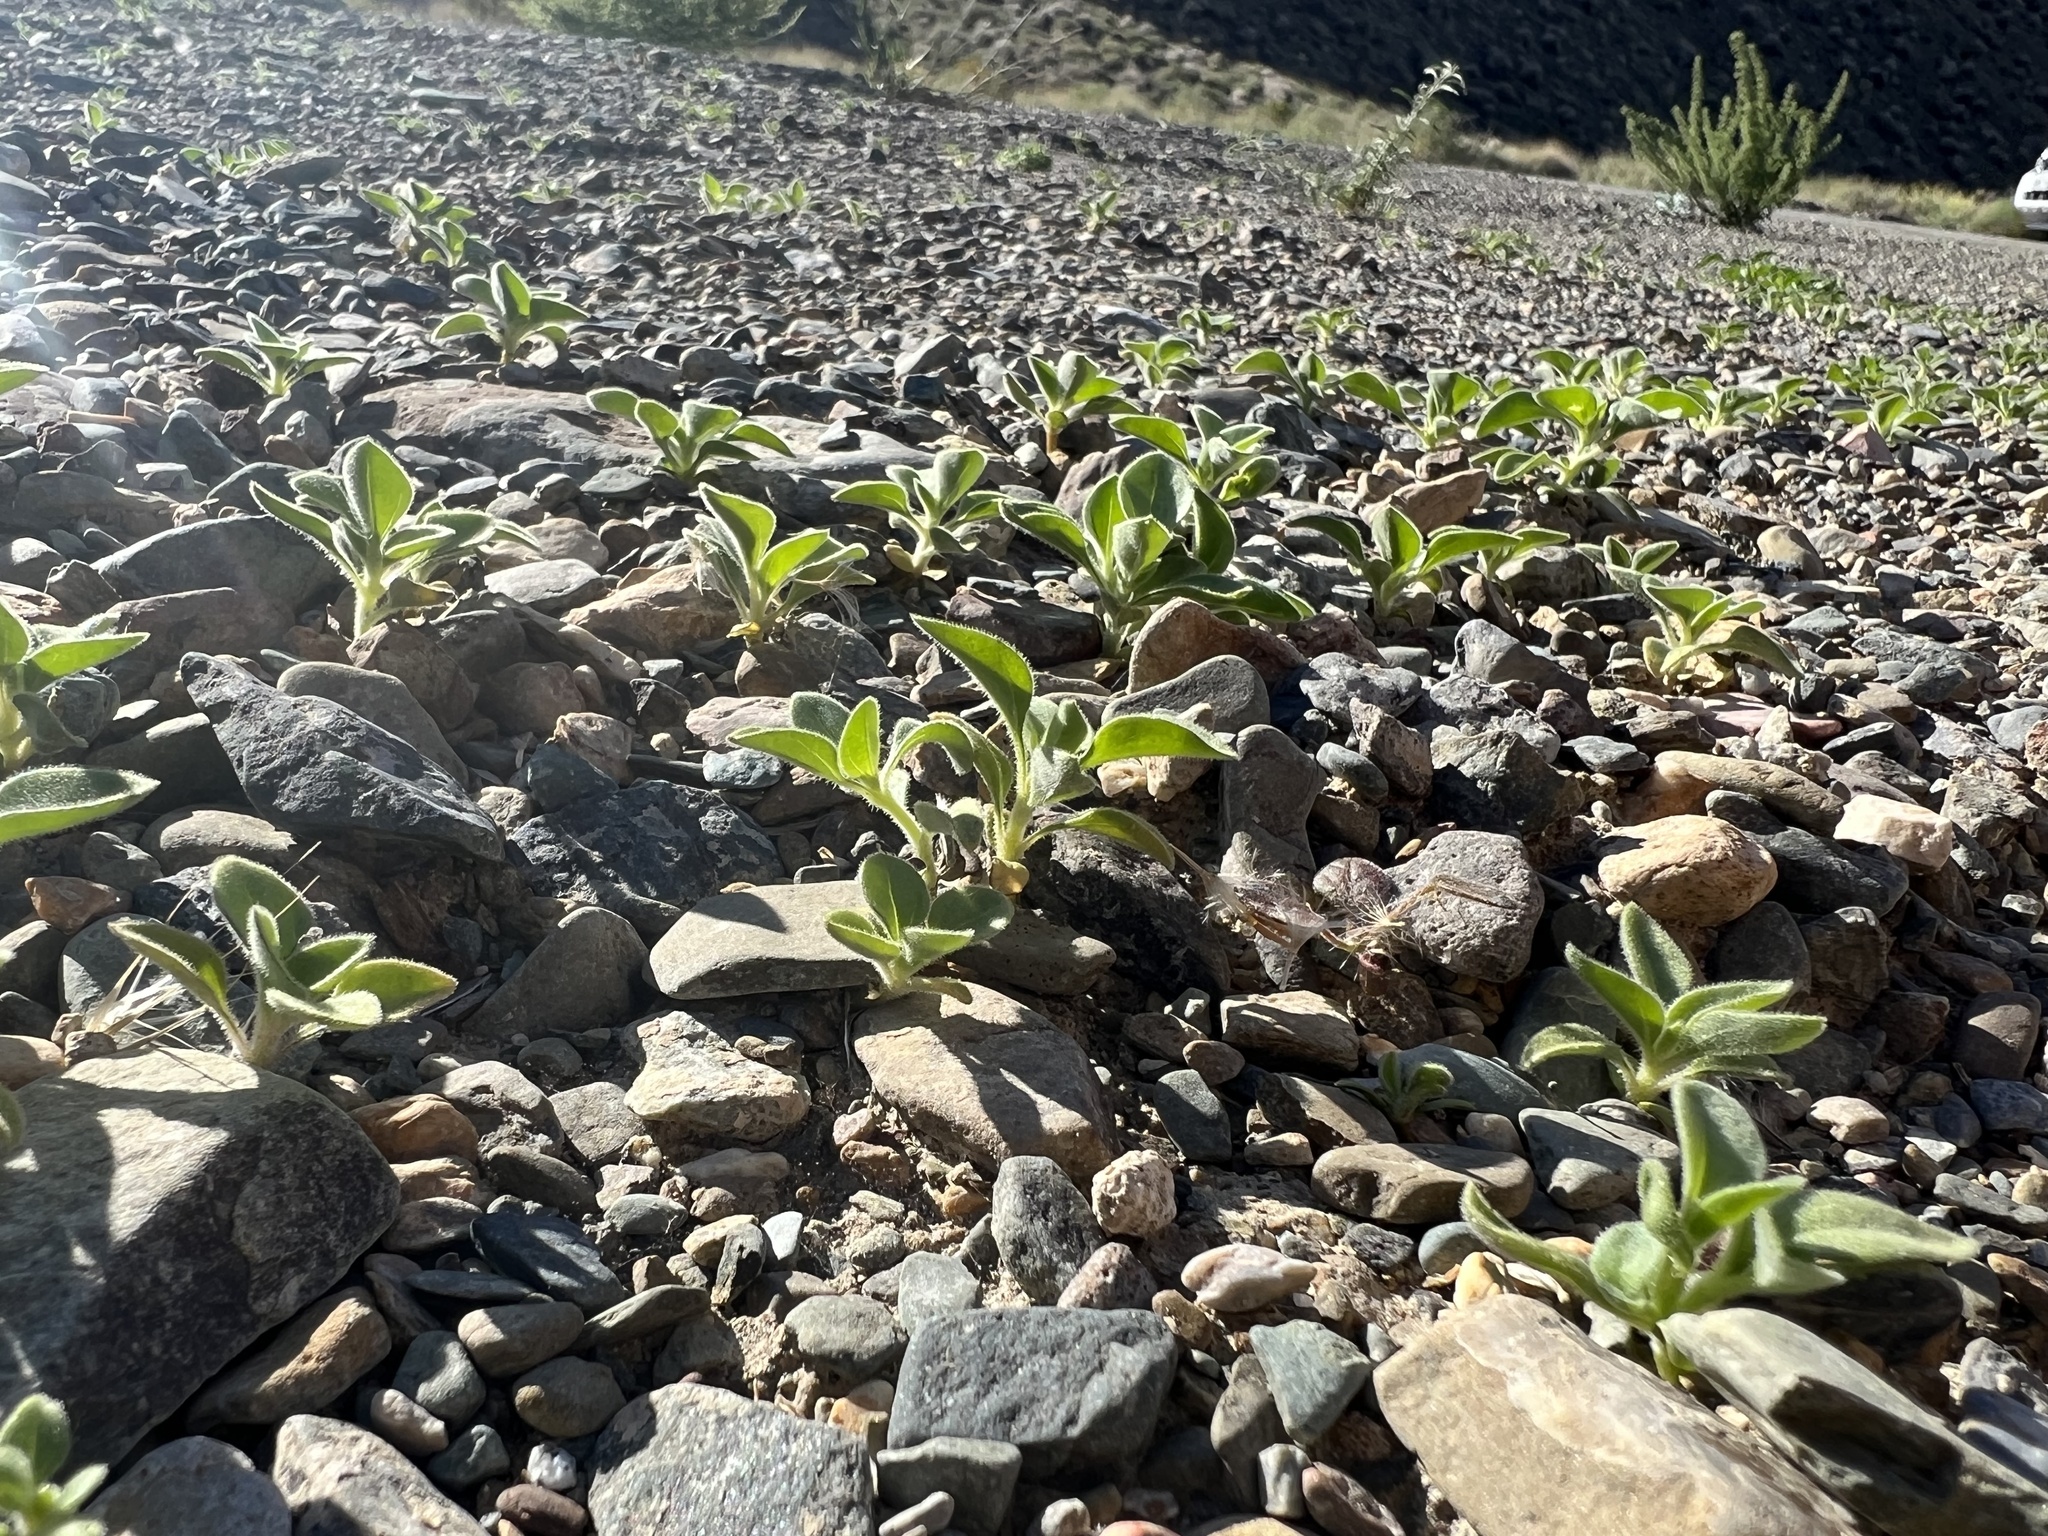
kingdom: Plantae
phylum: Tracheophyta
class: Magnoliopsida
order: Asterales
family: Asteraceae
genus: Encelia
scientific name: Encelia actoni
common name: Acton encelia
